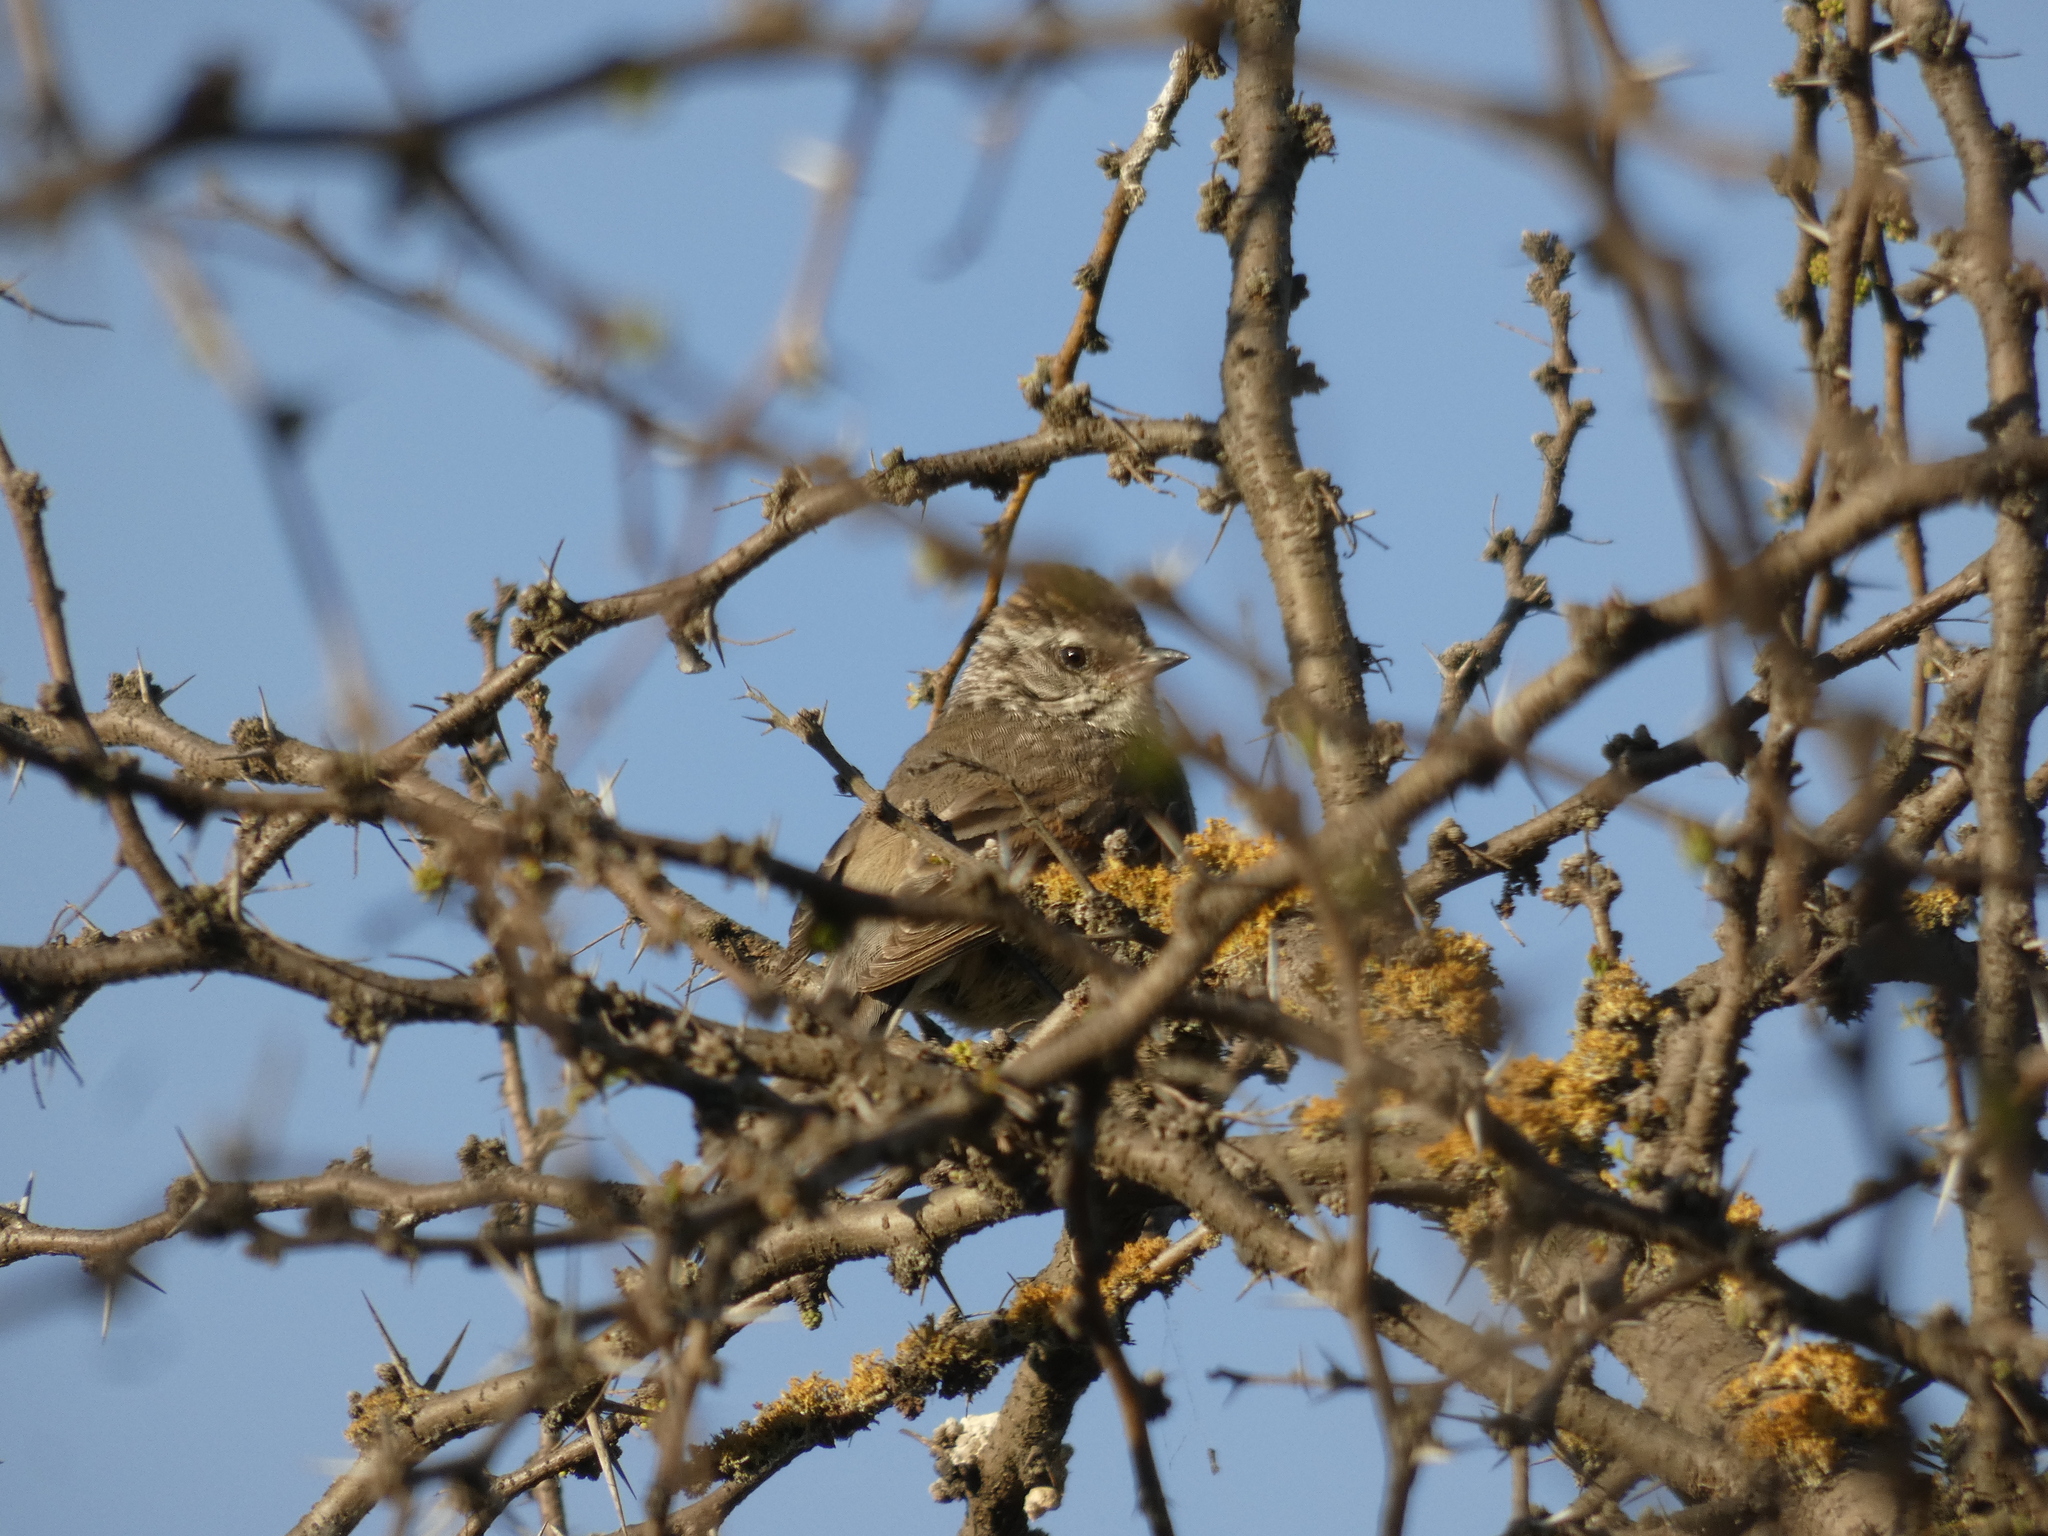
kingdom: Animalia
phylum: Chordata
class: Aves
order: Passeriformes
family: Furnariidae
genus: Leptasthenura
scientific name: Leptasthenura aegithaloides
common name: Plain-mantled tit-spinetail
